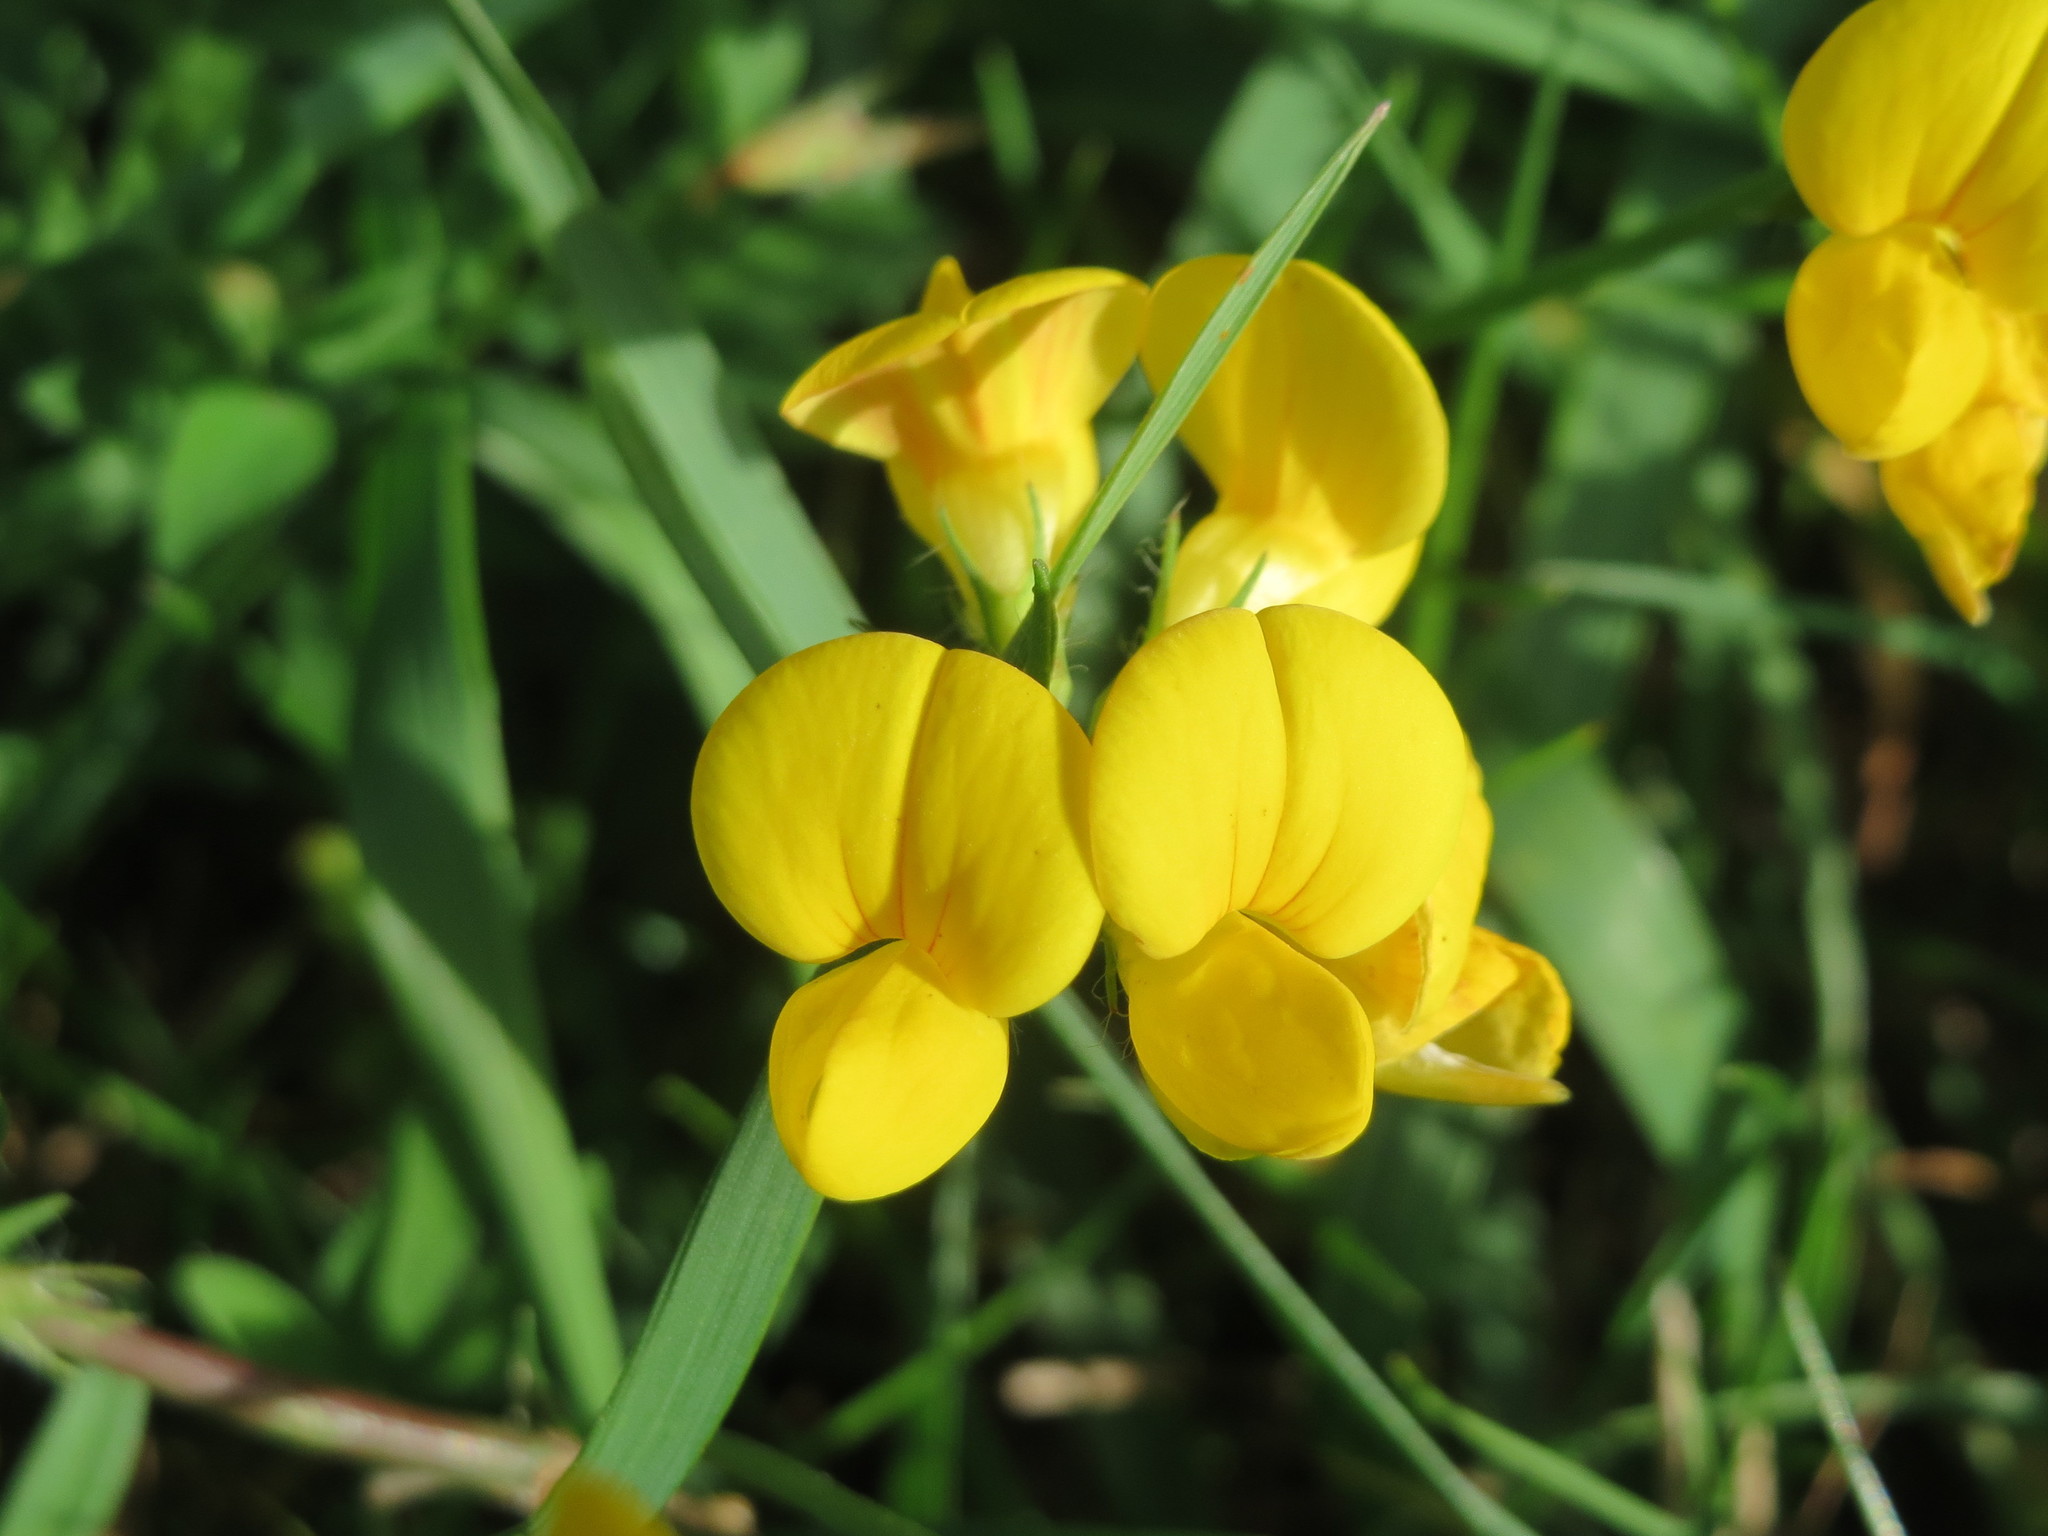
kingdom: Plantae
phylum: Tracheophyta
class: Magnoliopsida
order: Fabales
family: Fabaceae
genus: Lotus
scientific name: Lotus corniculatus
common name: Common bird's-foot-trefoil
